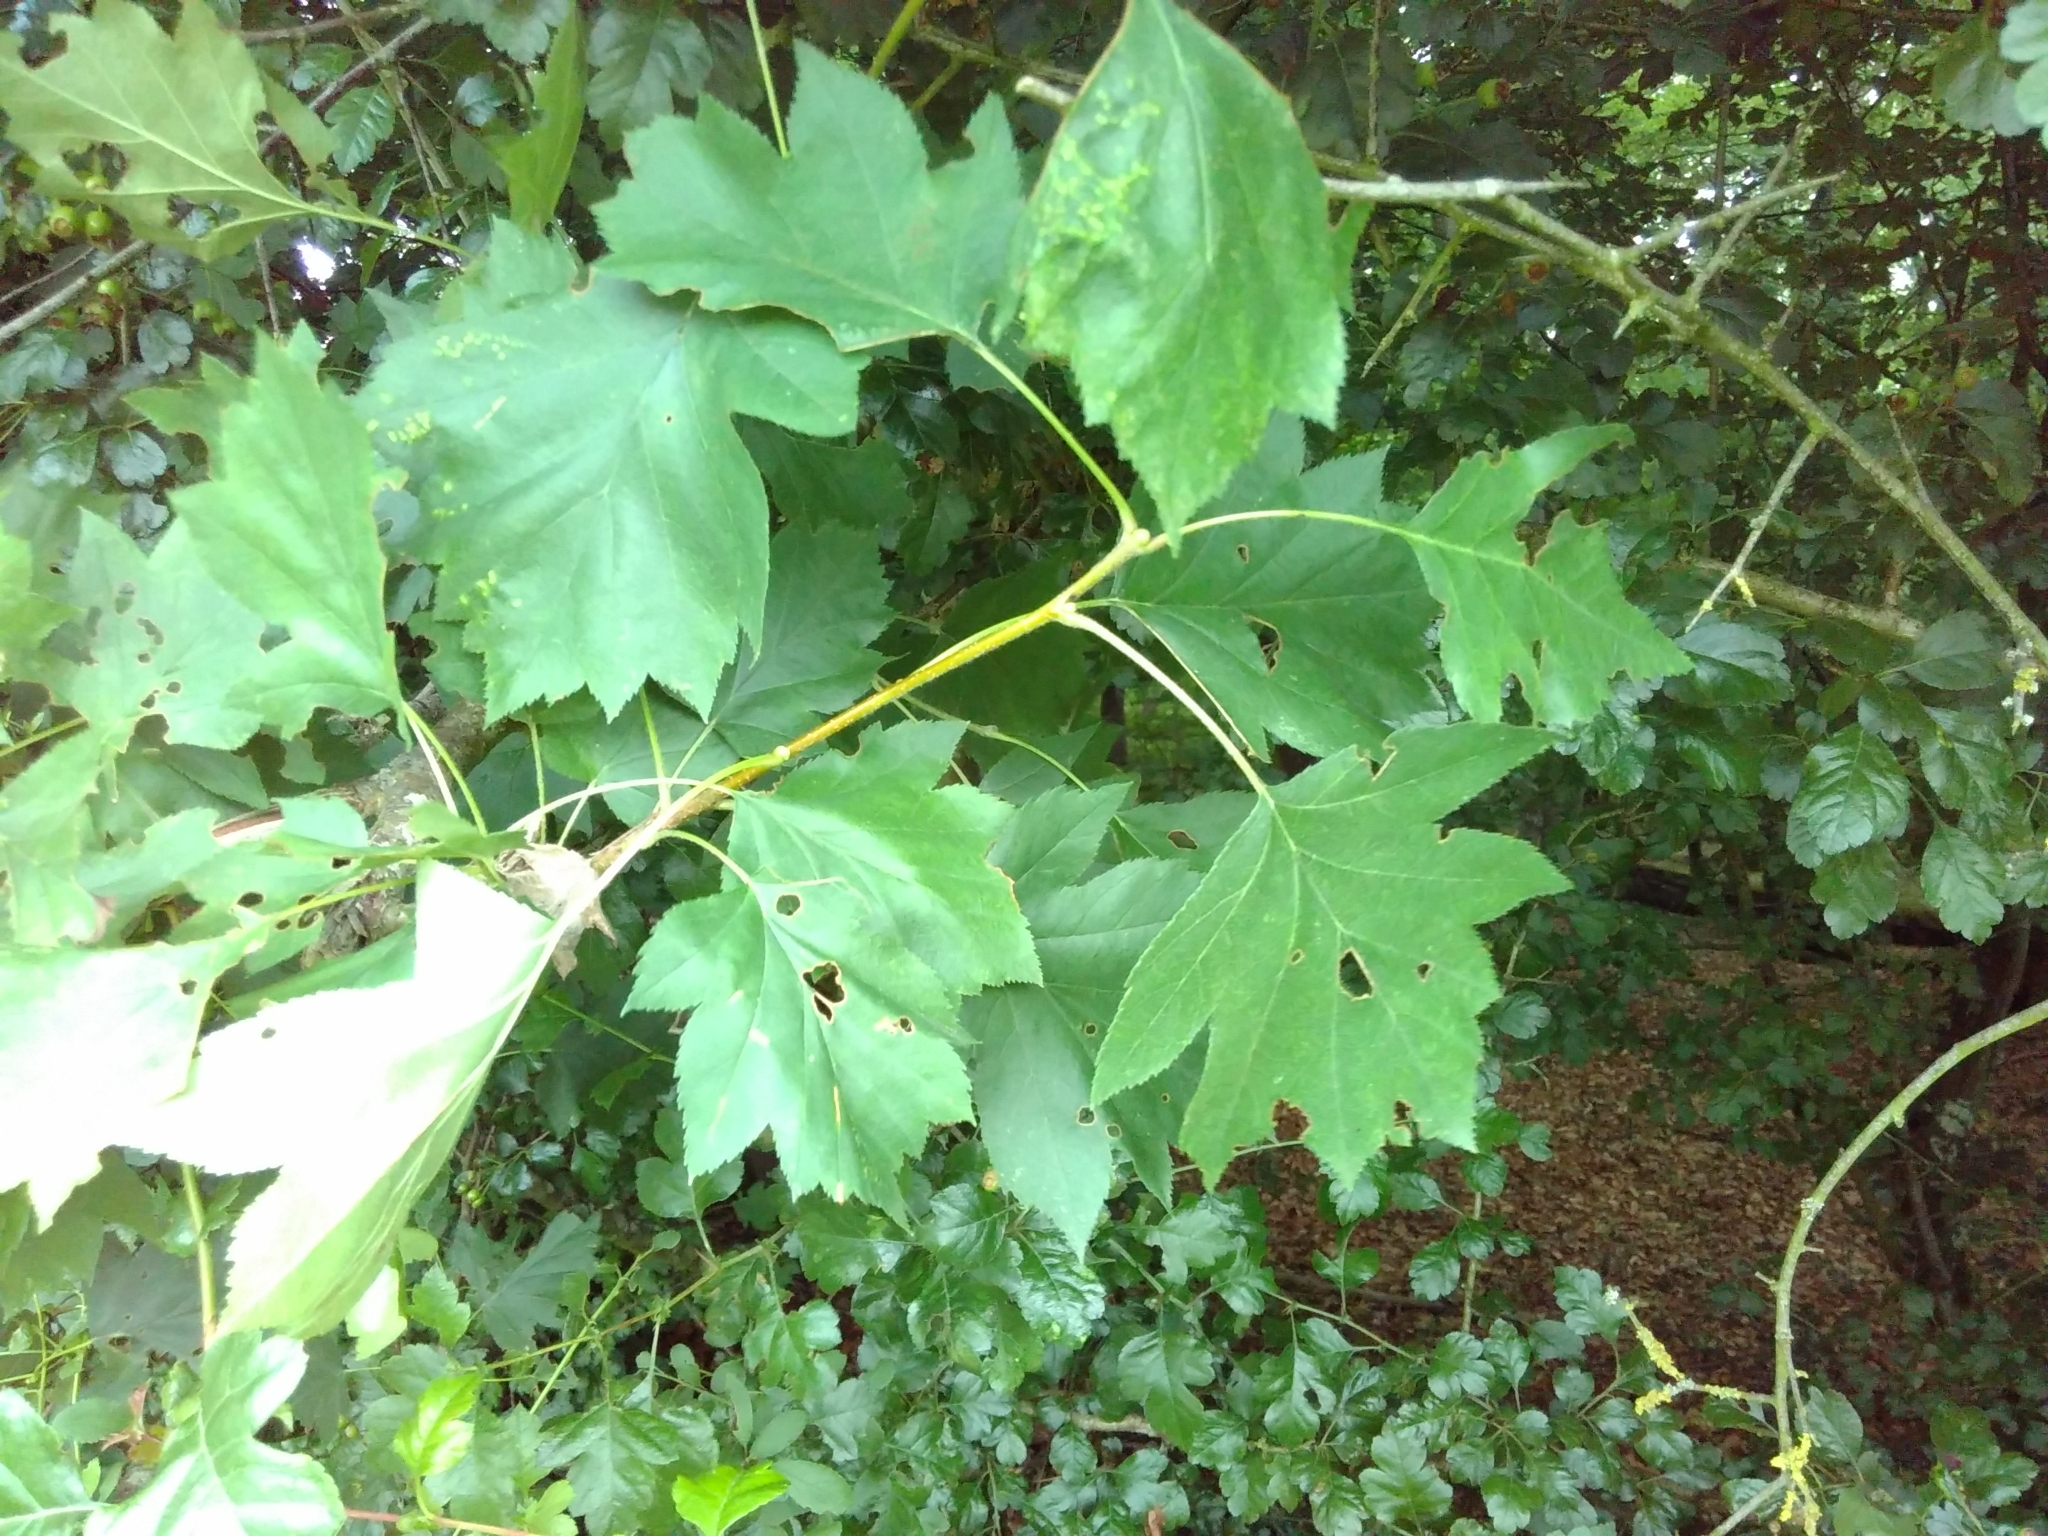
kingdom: Plantae
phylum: Tracheophyta
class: Magnoliopsida
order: Rosales
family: Rosaceae
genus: Torminalis
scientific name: Torminalis glaberrima
